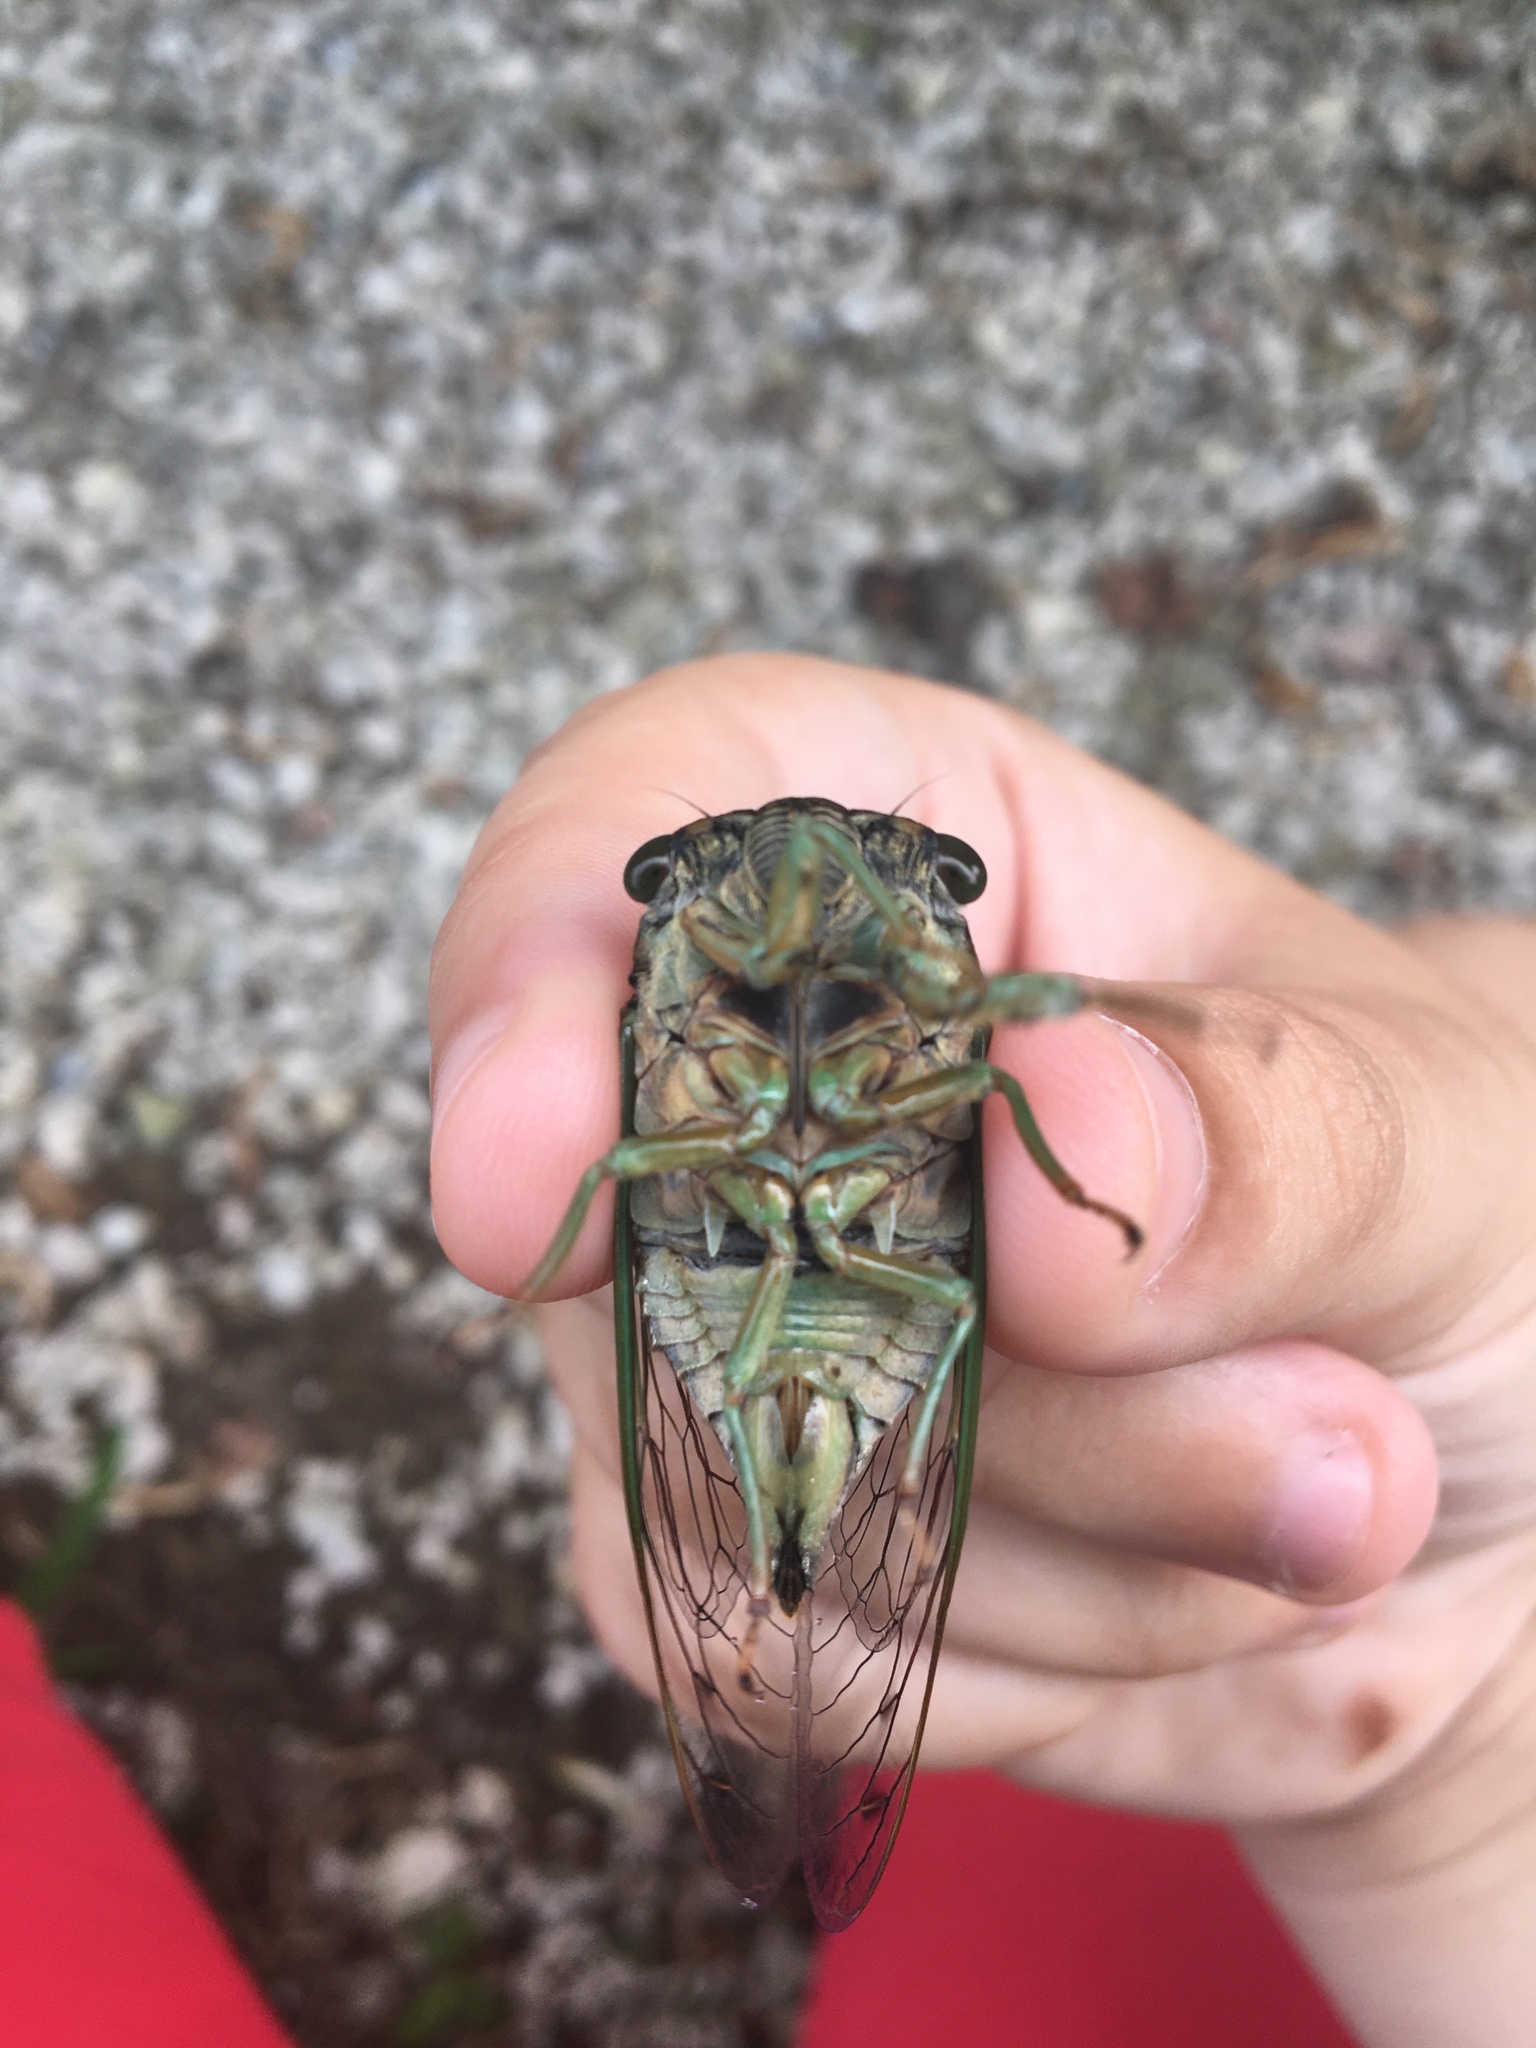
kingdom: Animalia
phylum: Arthropoda
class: Insecta
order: Hemiptera
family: Cicadidae
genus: Neotibicen
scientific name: Neotibicen tibicen
